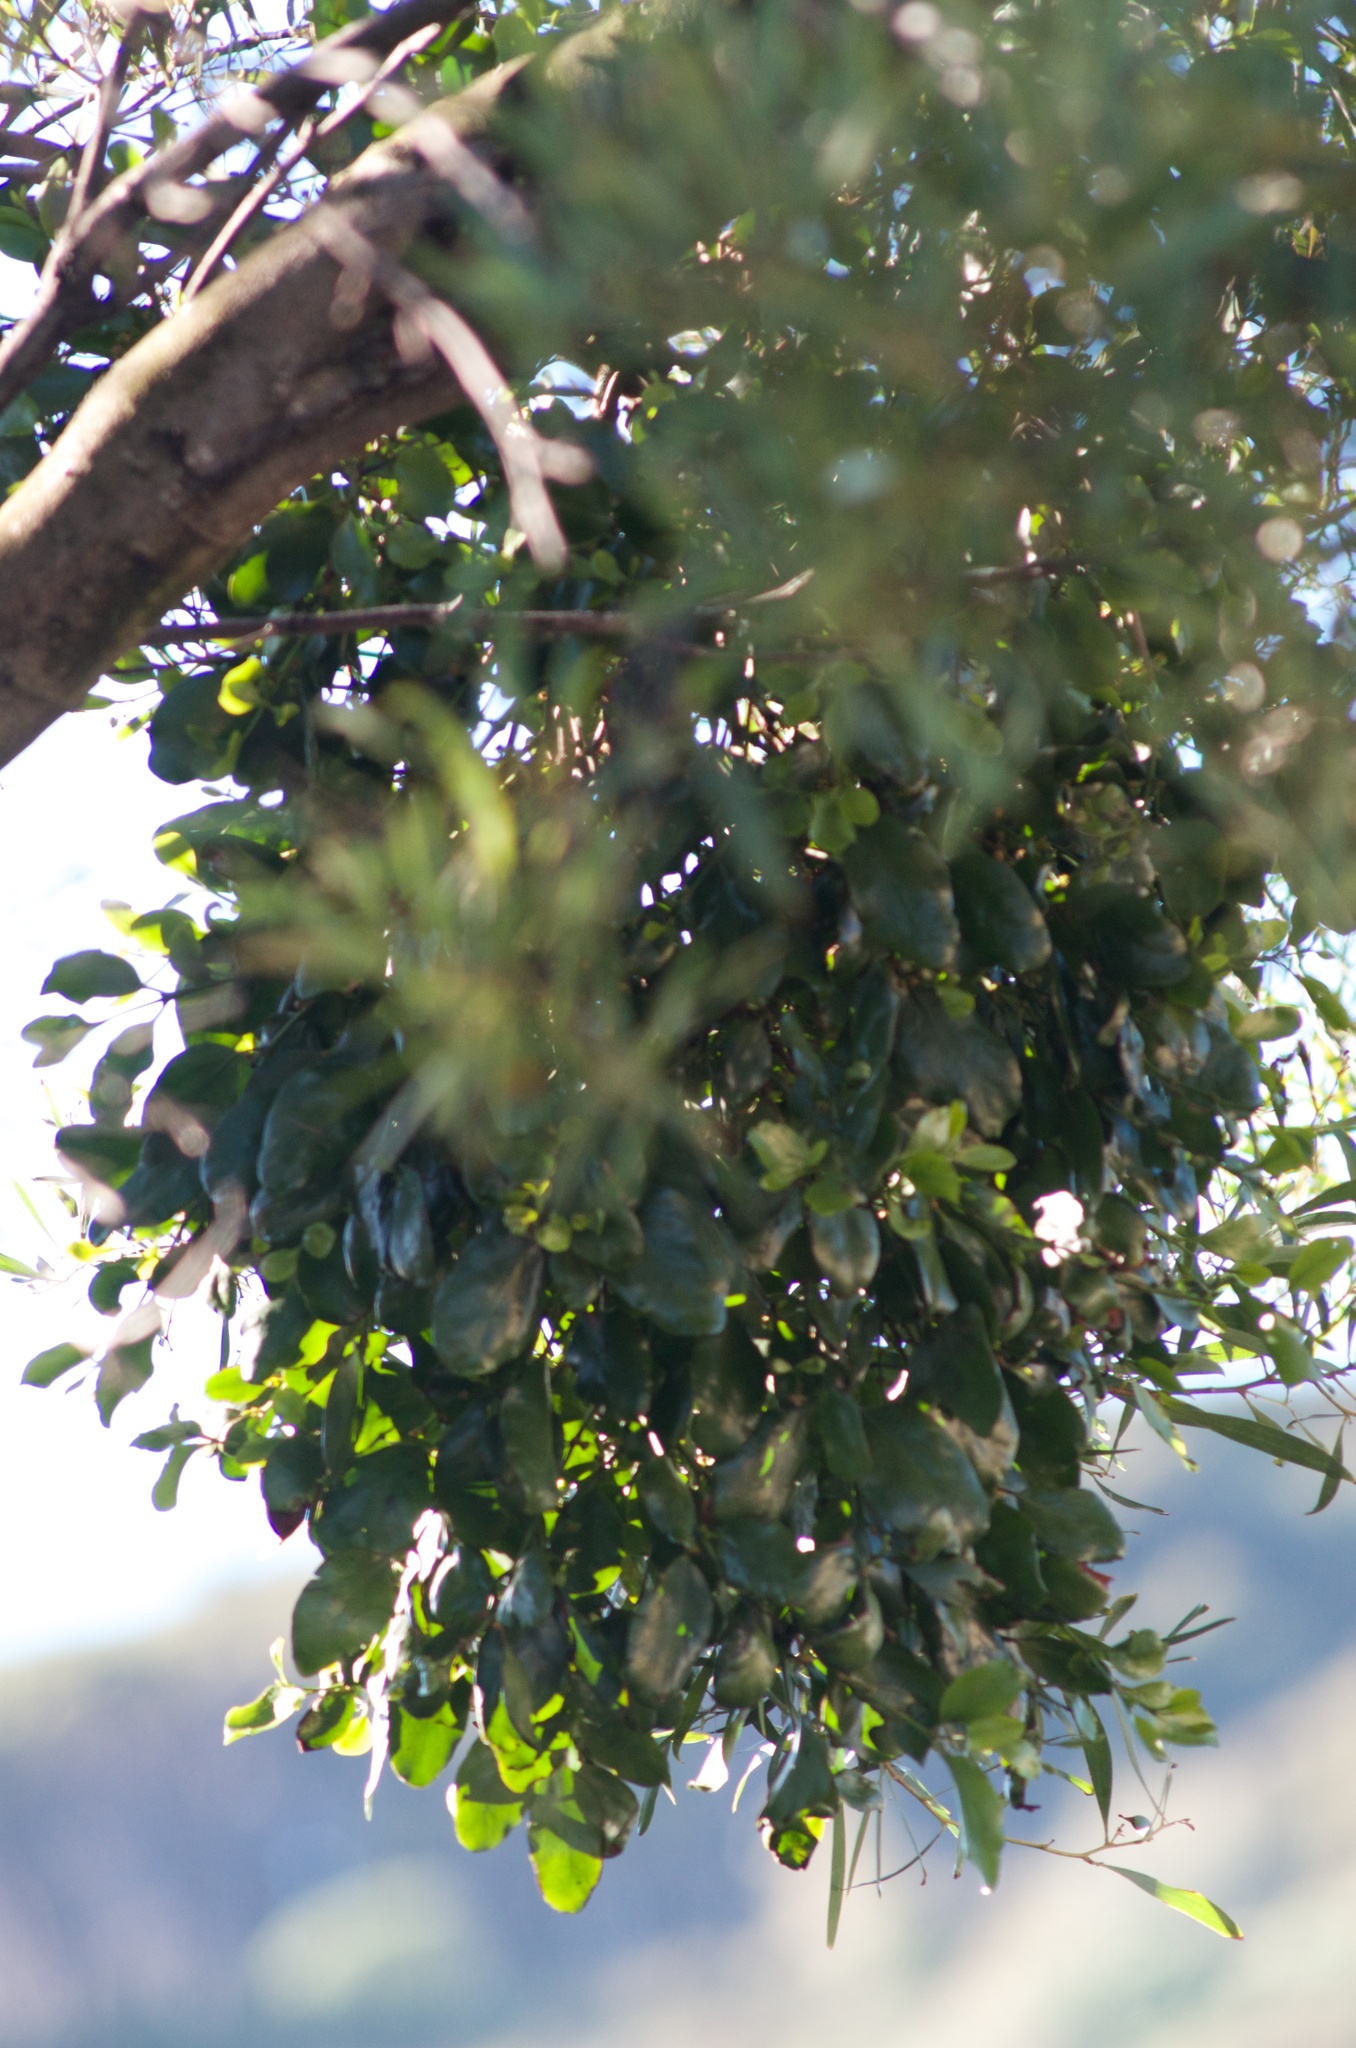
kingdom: Plantae
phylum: Tracheophyta
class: Magnoliopsida
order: Santalales
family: Loranthaceae
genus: Ileostylus
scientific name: Ileostylus micranthus
